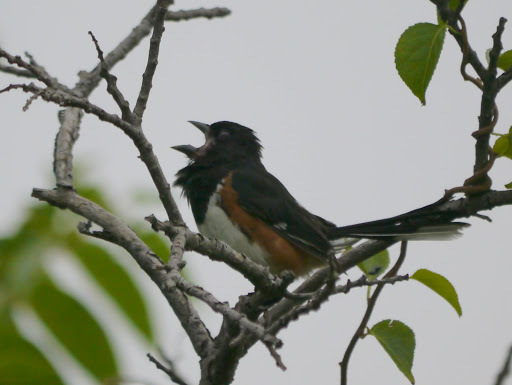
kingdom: Animalia
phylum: Chordata
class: Aves
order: Passeriformes
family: Passerellidae
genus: Pipilo
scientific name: Pipilo erythrophthalmus
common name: Eastern towhee
